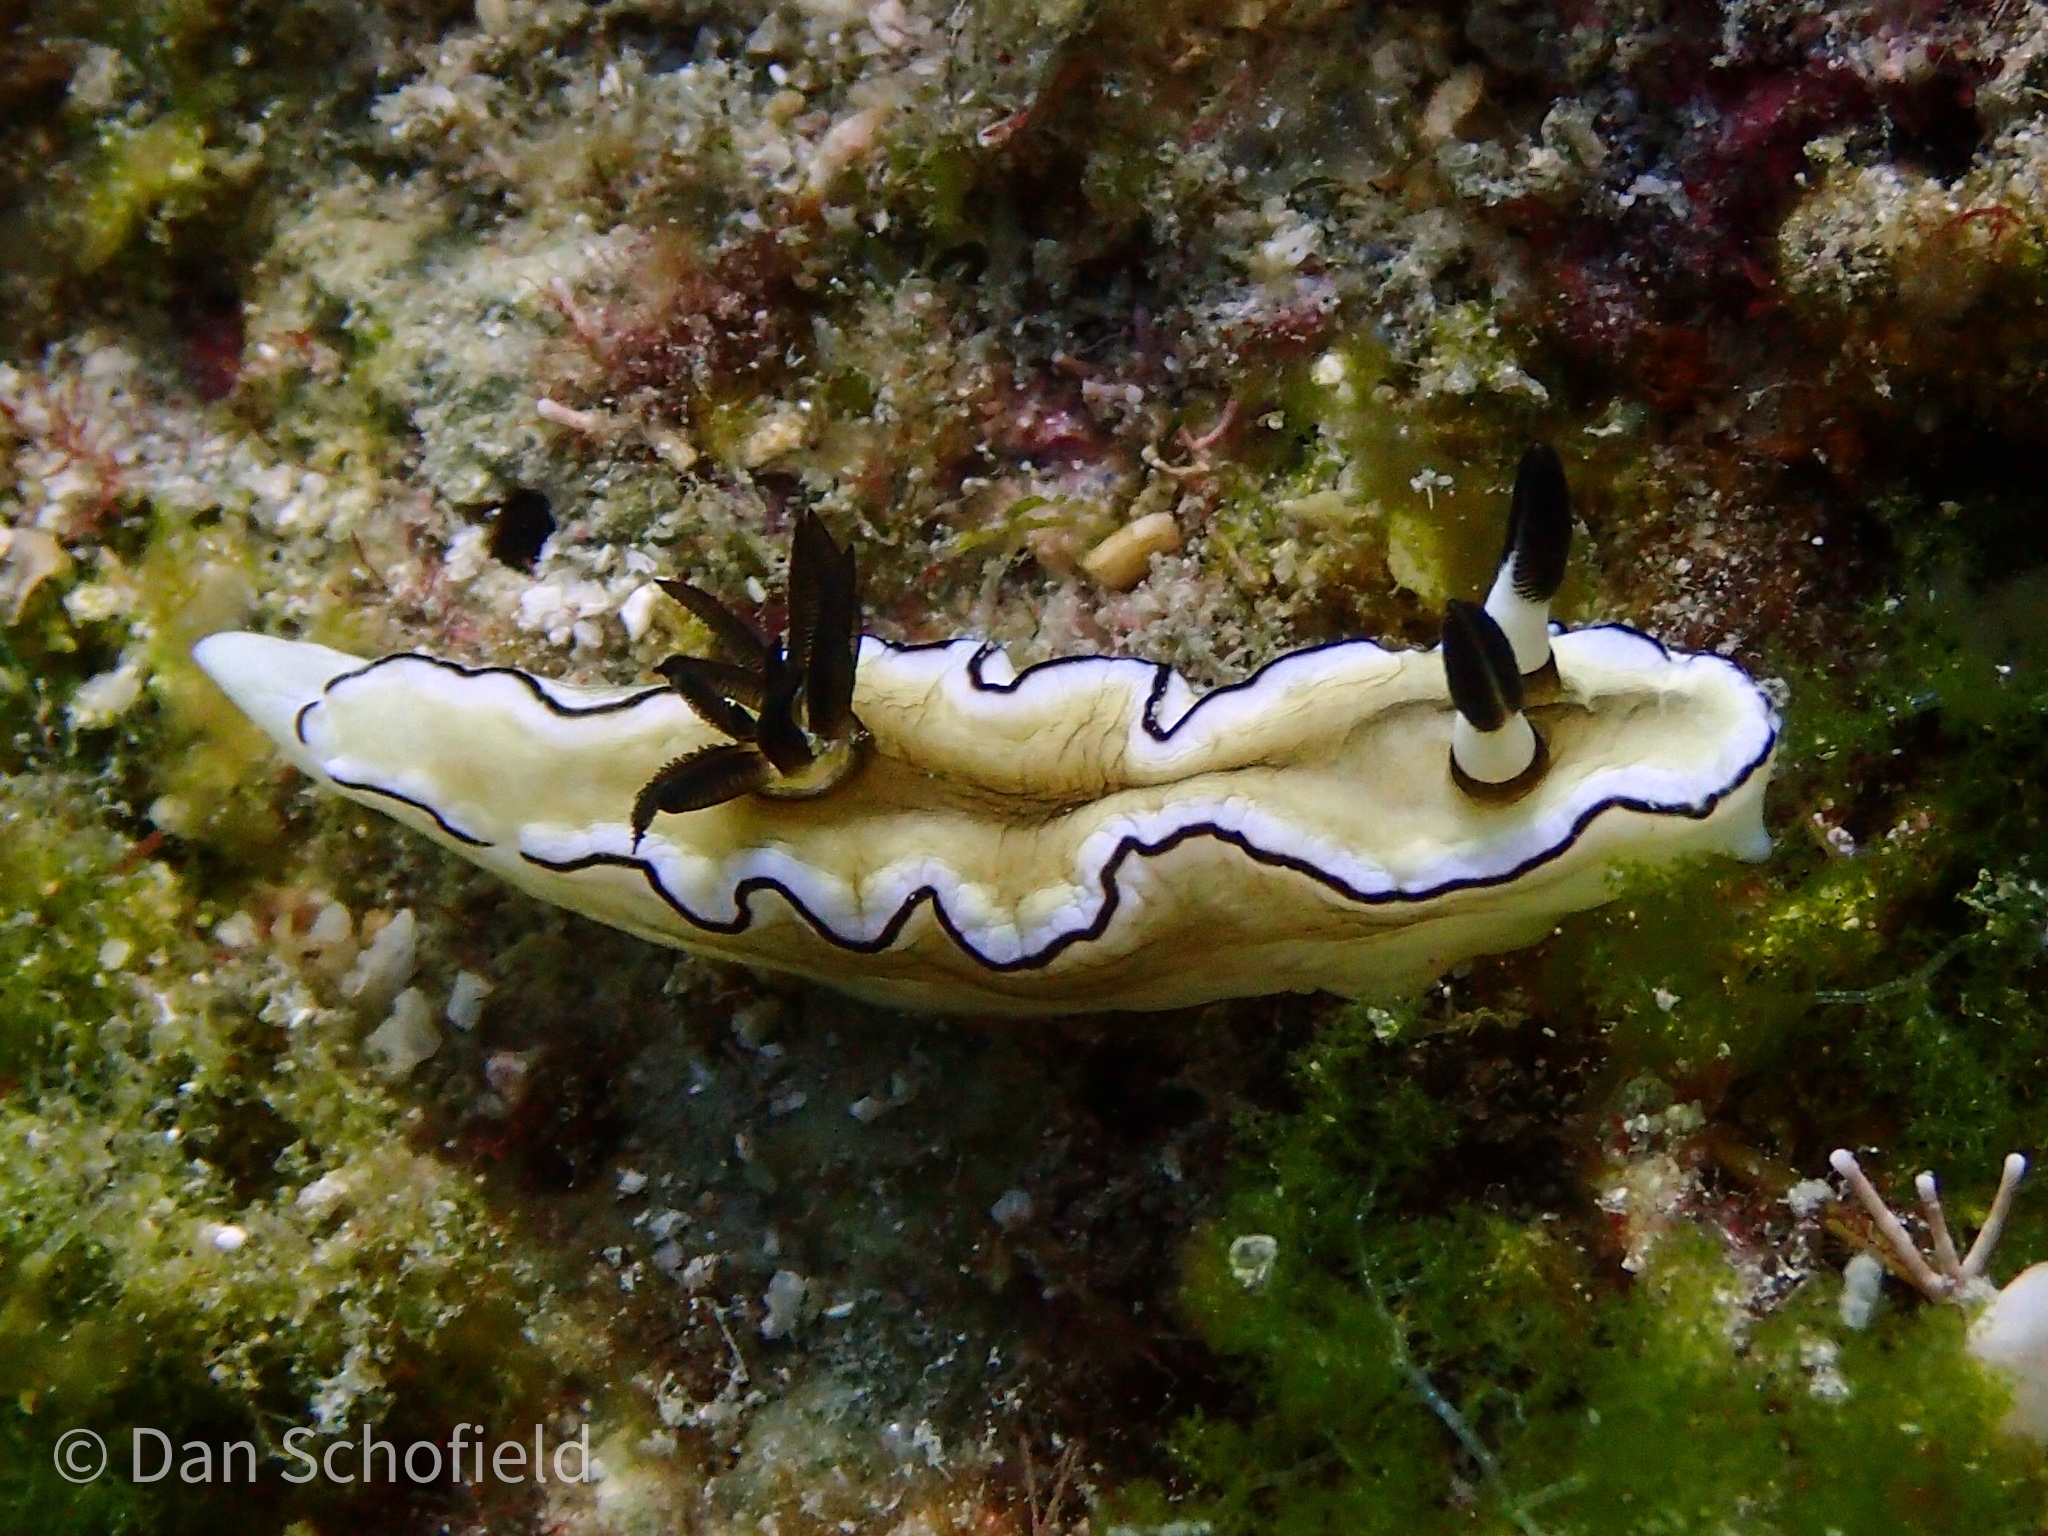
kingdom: Animalia
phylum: Mollusca
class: Gastropoda
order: Nudibranchia
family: Chromodorididae
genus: Doriprismatica
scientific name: Doriprismatica atromarginata
